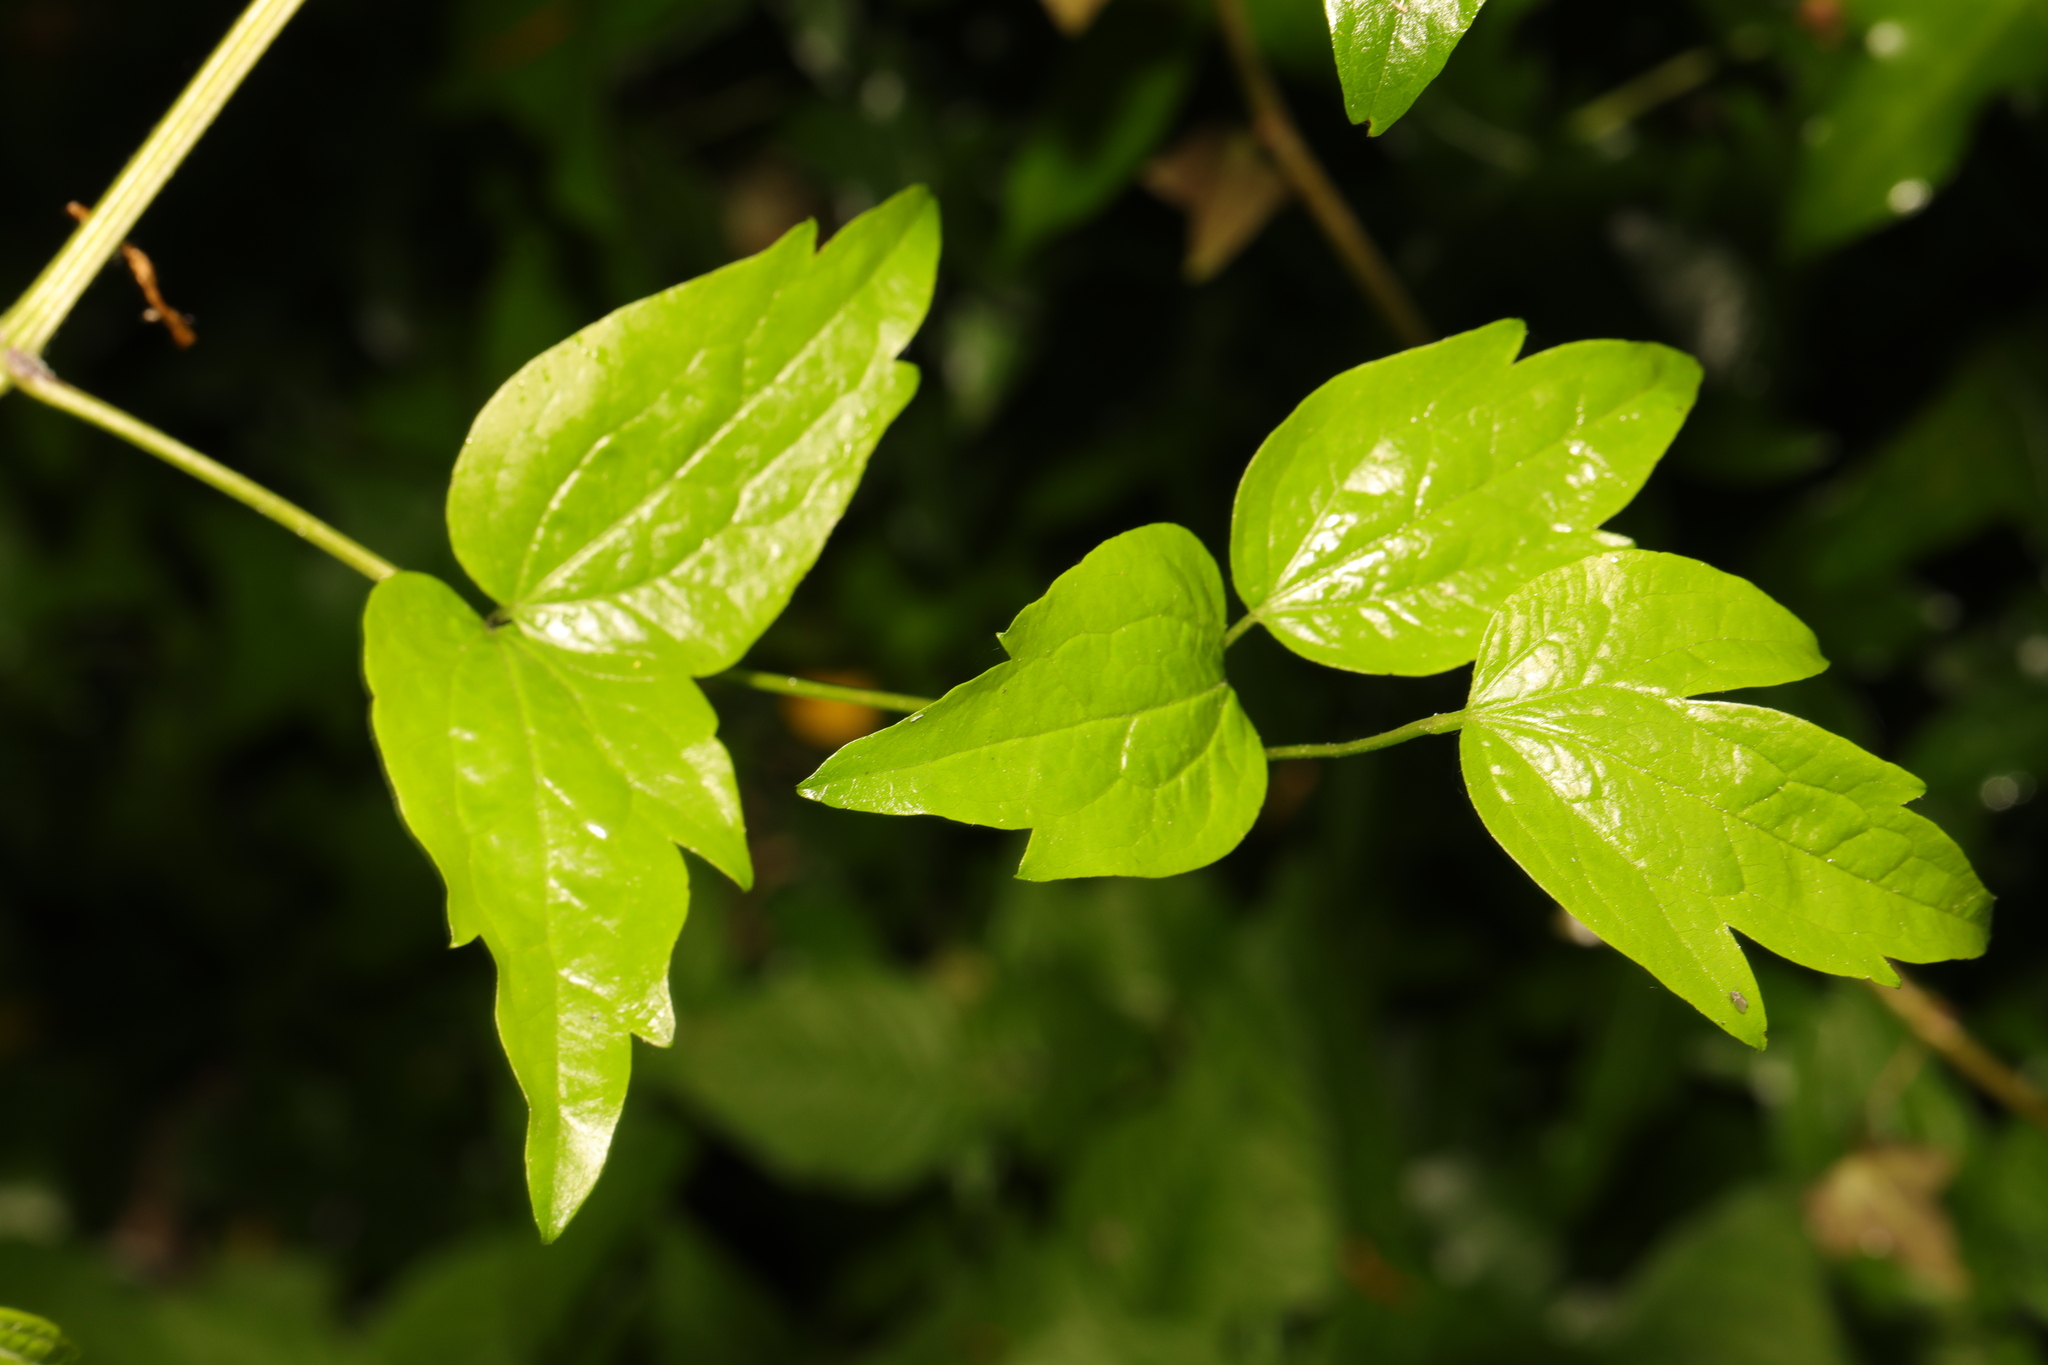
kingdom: Plantae
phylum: Tracheophyta
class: Magnoliopsida
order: Ranunculales
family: Ranunculaceae
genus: Clematis
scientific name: Clematis vitalba
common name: Evergreen clematis
